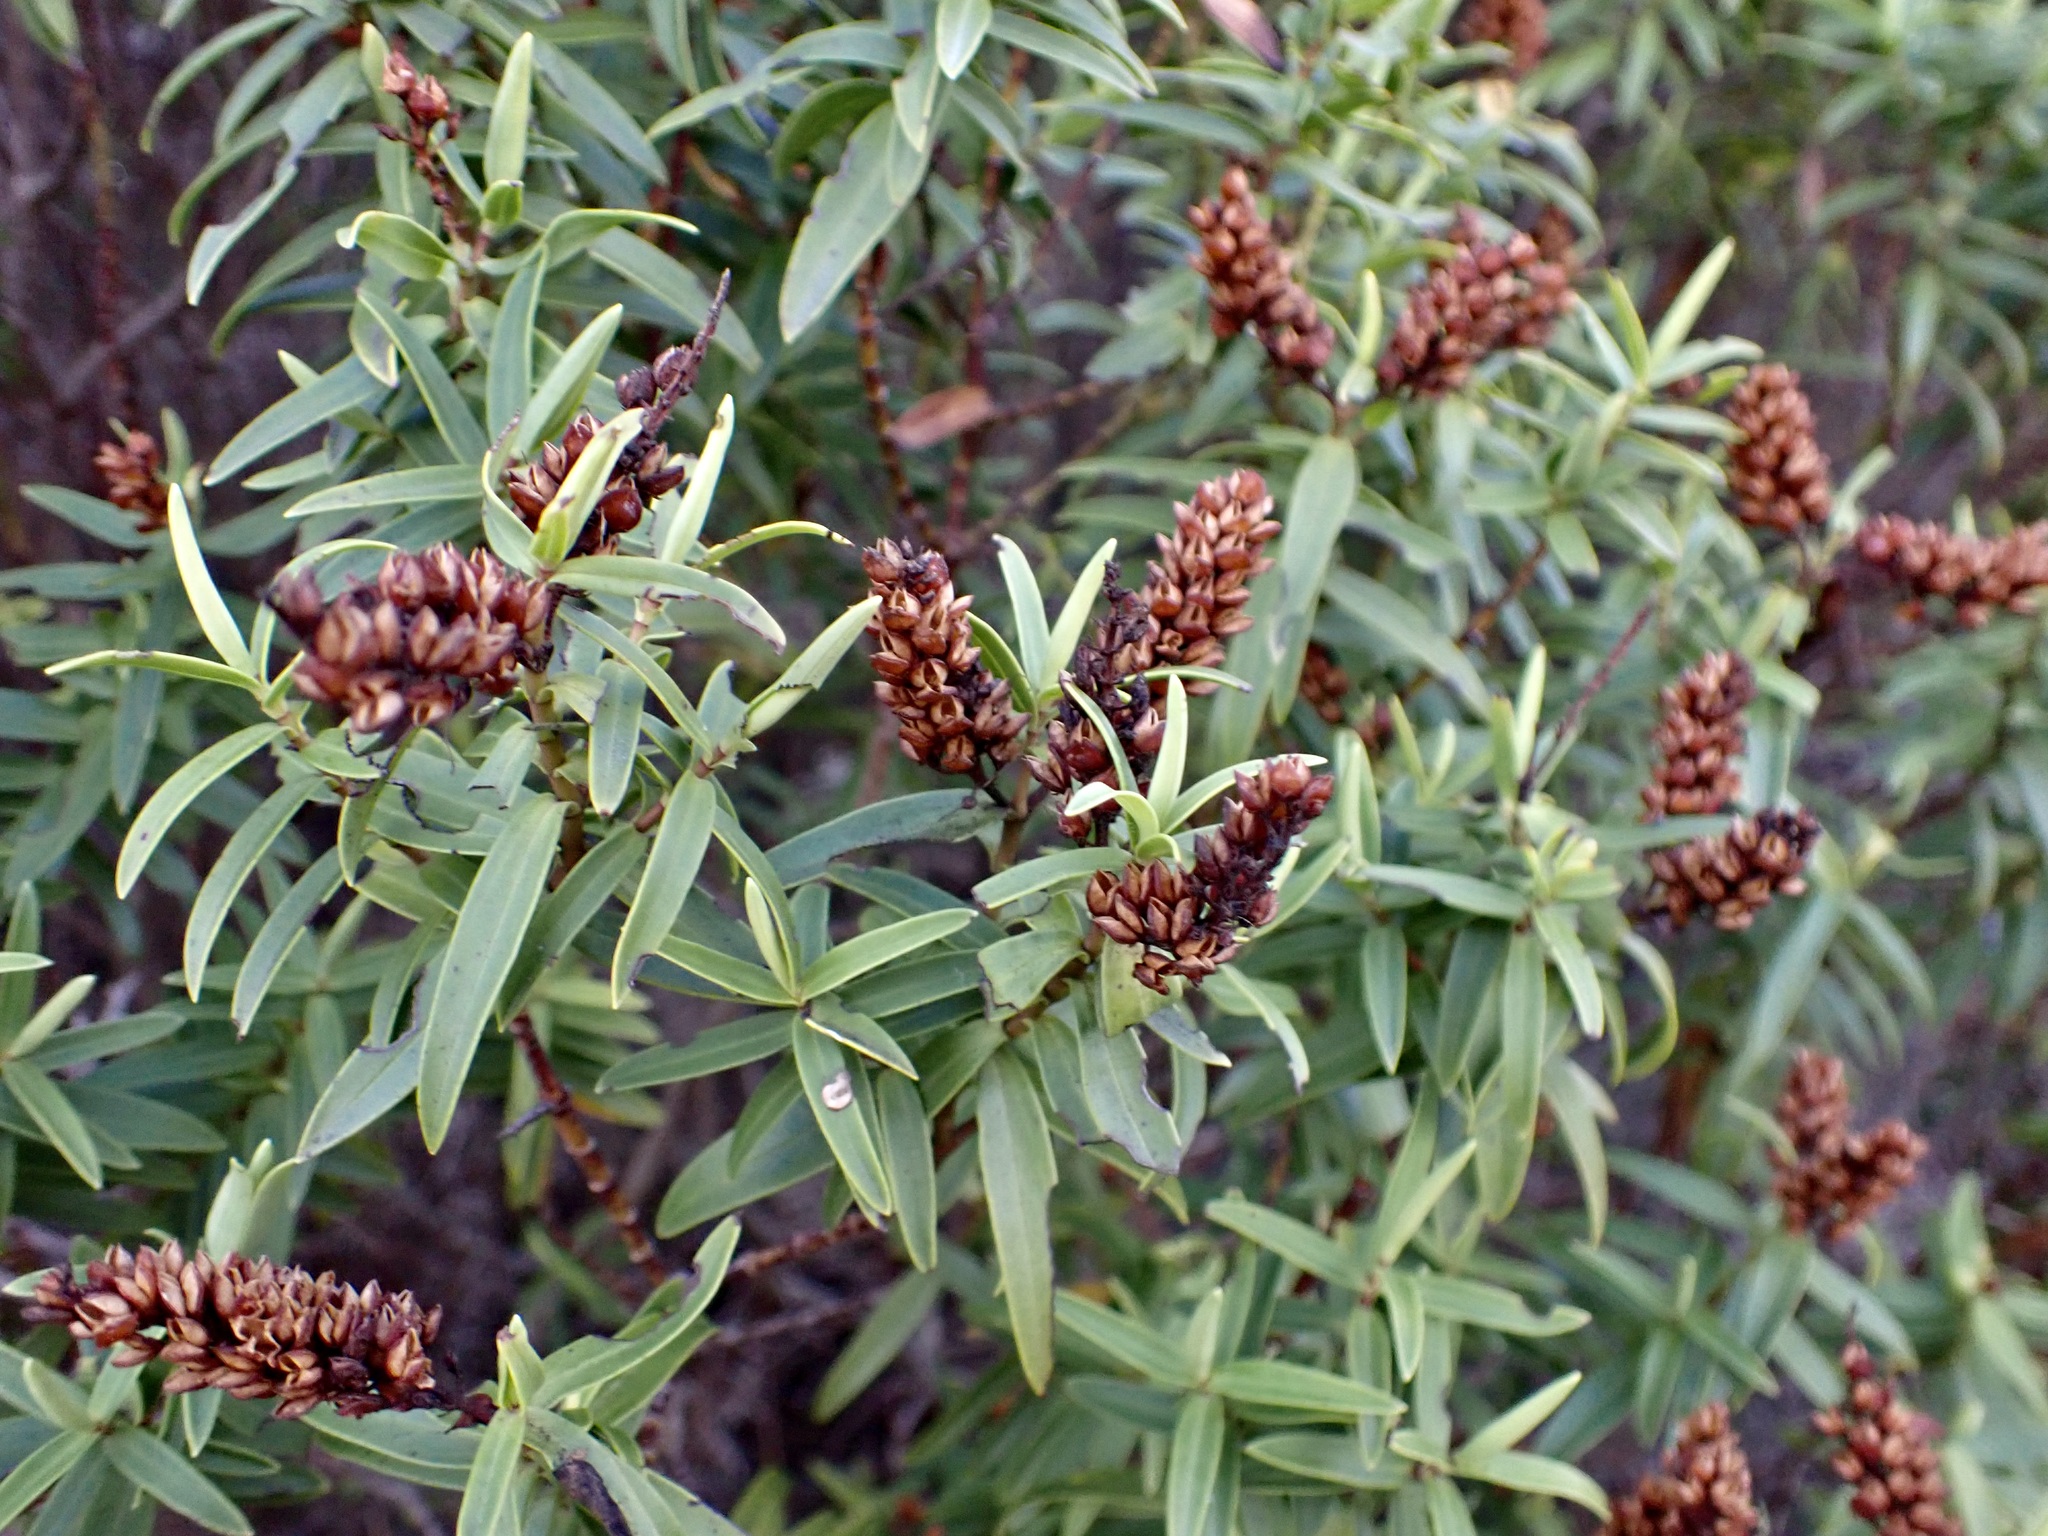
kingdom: Plantae
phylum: Tracheophyta
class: Magnoliopsida
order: Lamiales
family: Plantaginaceae
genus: Veronica
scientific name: Veronica strictissima
